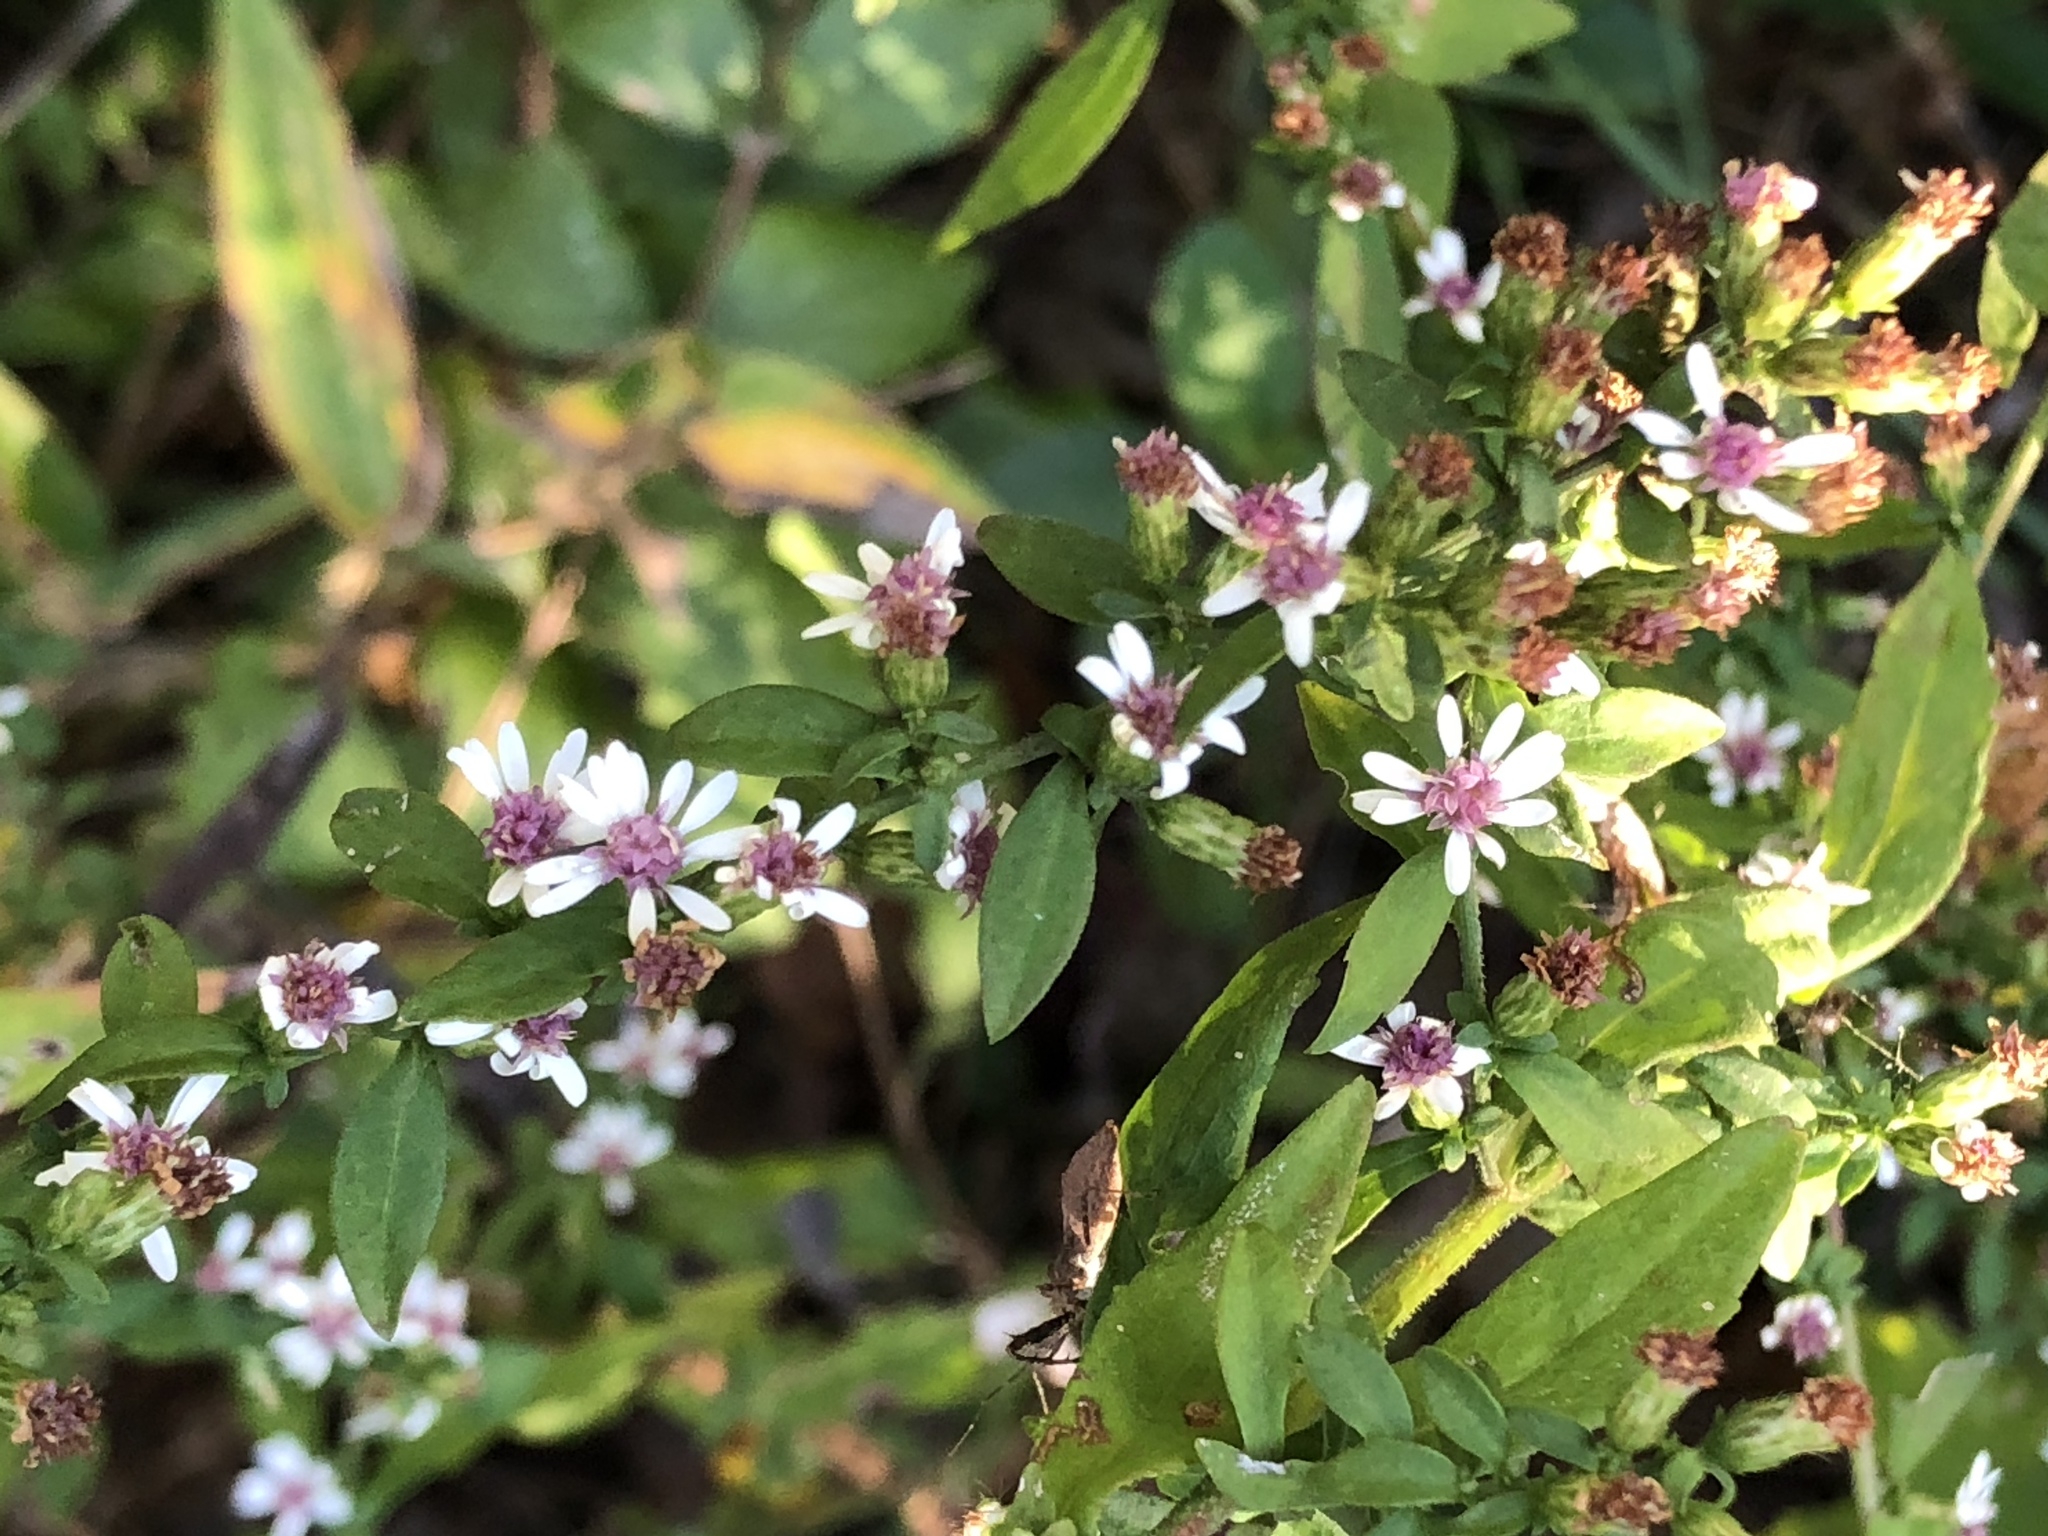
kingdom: Plantae
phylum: Tracheophyta
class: Magnoliopsida
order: Asterales
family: Asteraceae
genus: Symphyotrichum
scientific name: Symphyotrichum lateriflorum
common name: Calico aster
